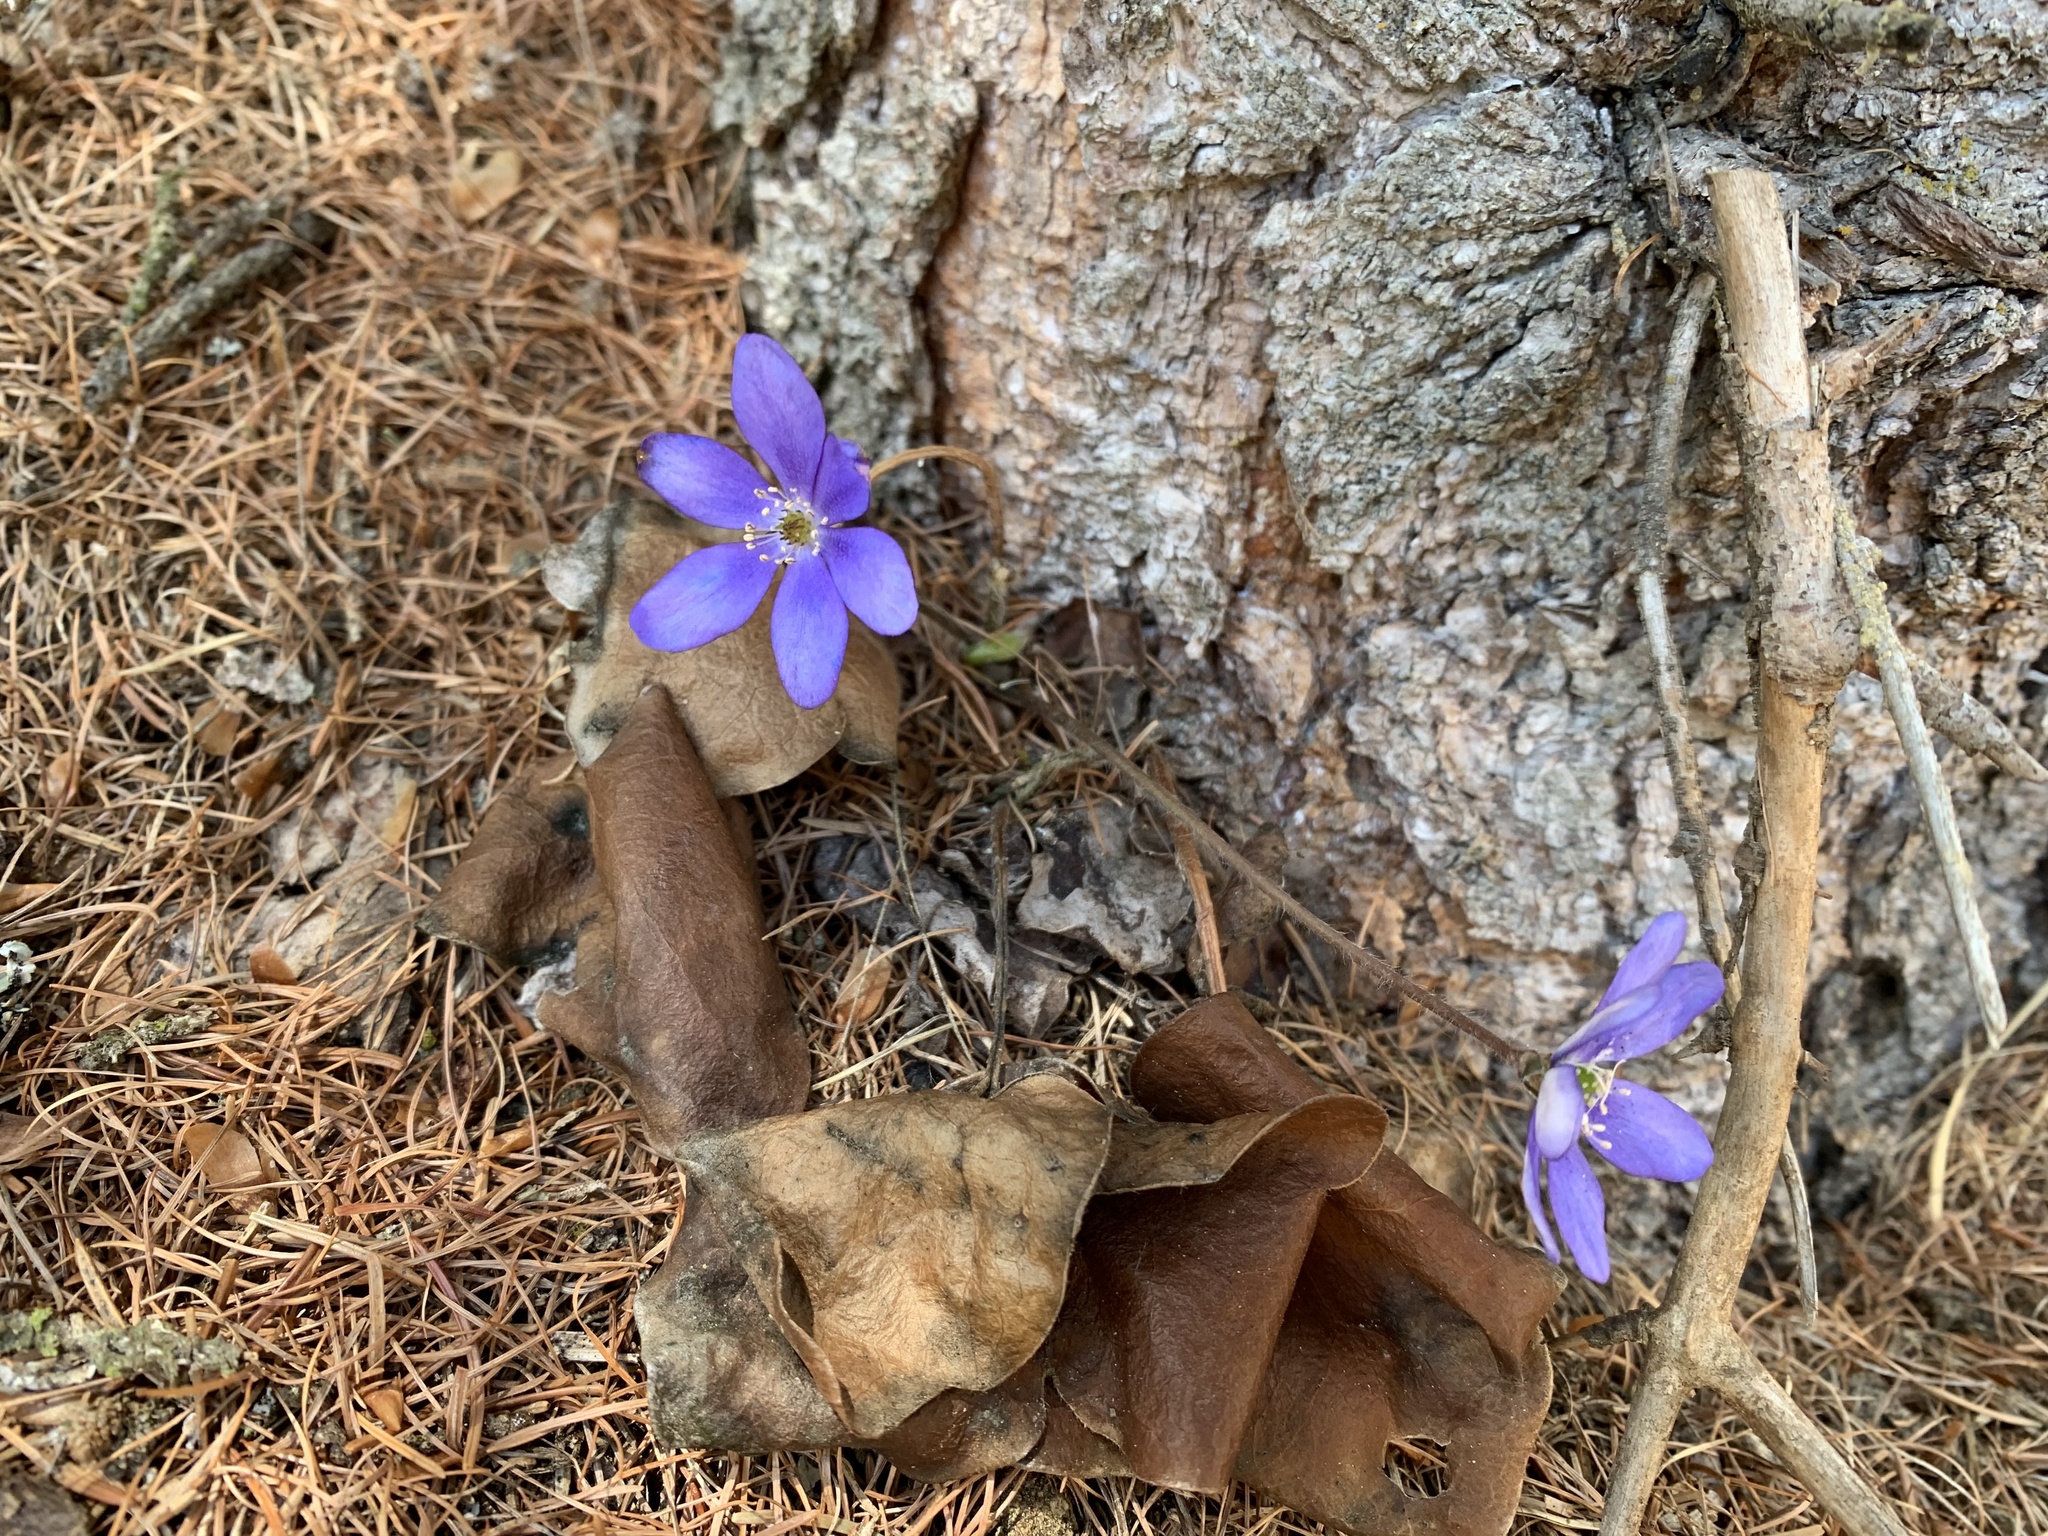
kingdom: Plantae
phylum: Tracheophyta
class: Magnoliopsida
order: Ranunculales
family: Ranunculaceae
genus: Hepatica
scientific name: Hepatica nobilis
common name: Liverleaf
